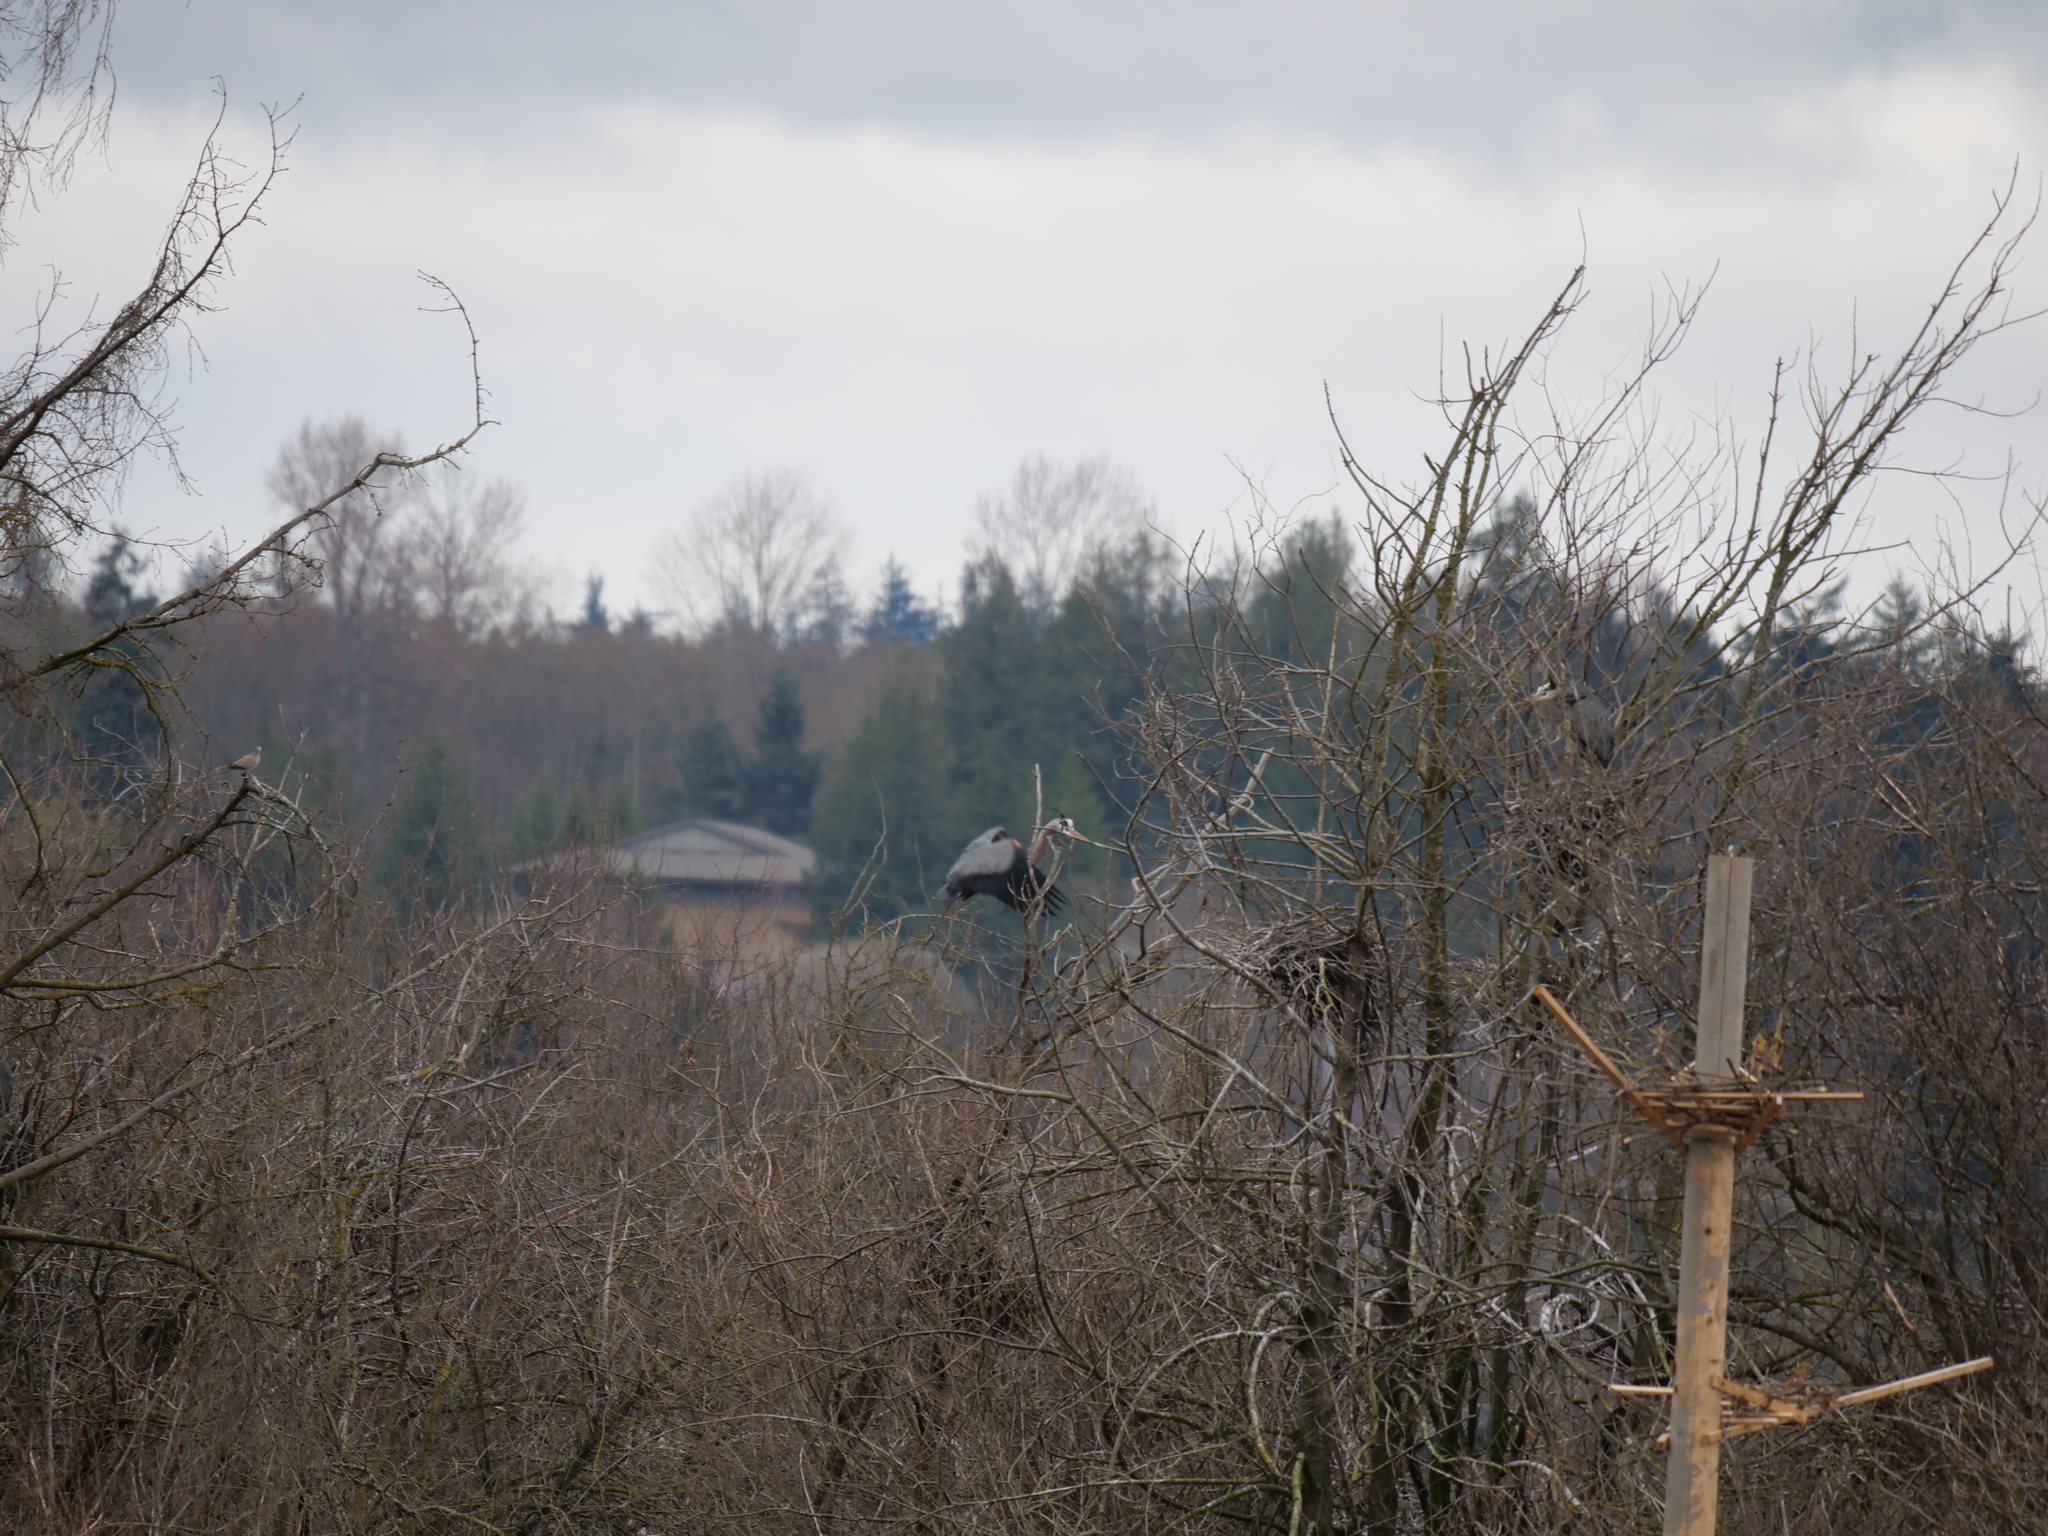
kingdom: Animalia
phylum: Chordata
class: Aves
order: Pelecaniformes
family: Ardeidae
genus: Ardea
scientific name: Ardea herodias
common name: Great blue heron
